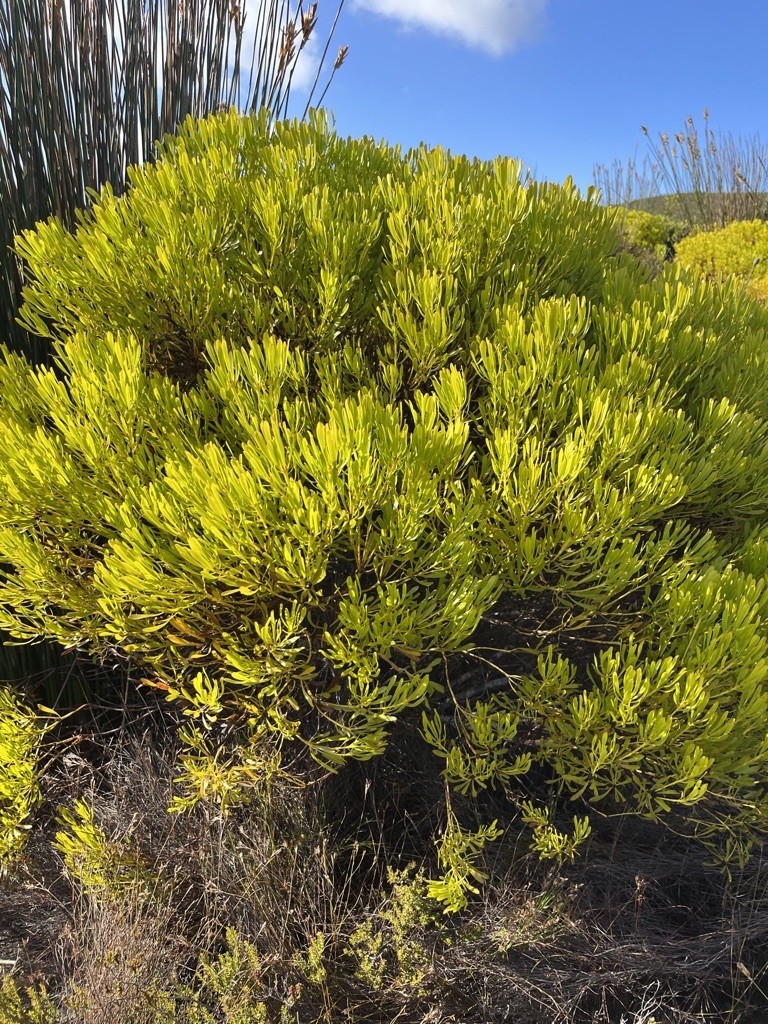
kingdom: Plantae
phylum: Tracheophyta
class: Magnoliopsida
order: Proteales
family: Proteaceae
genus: Leucadendron
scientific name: Leucadendron platyspermum
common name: Plate-seed conebush
